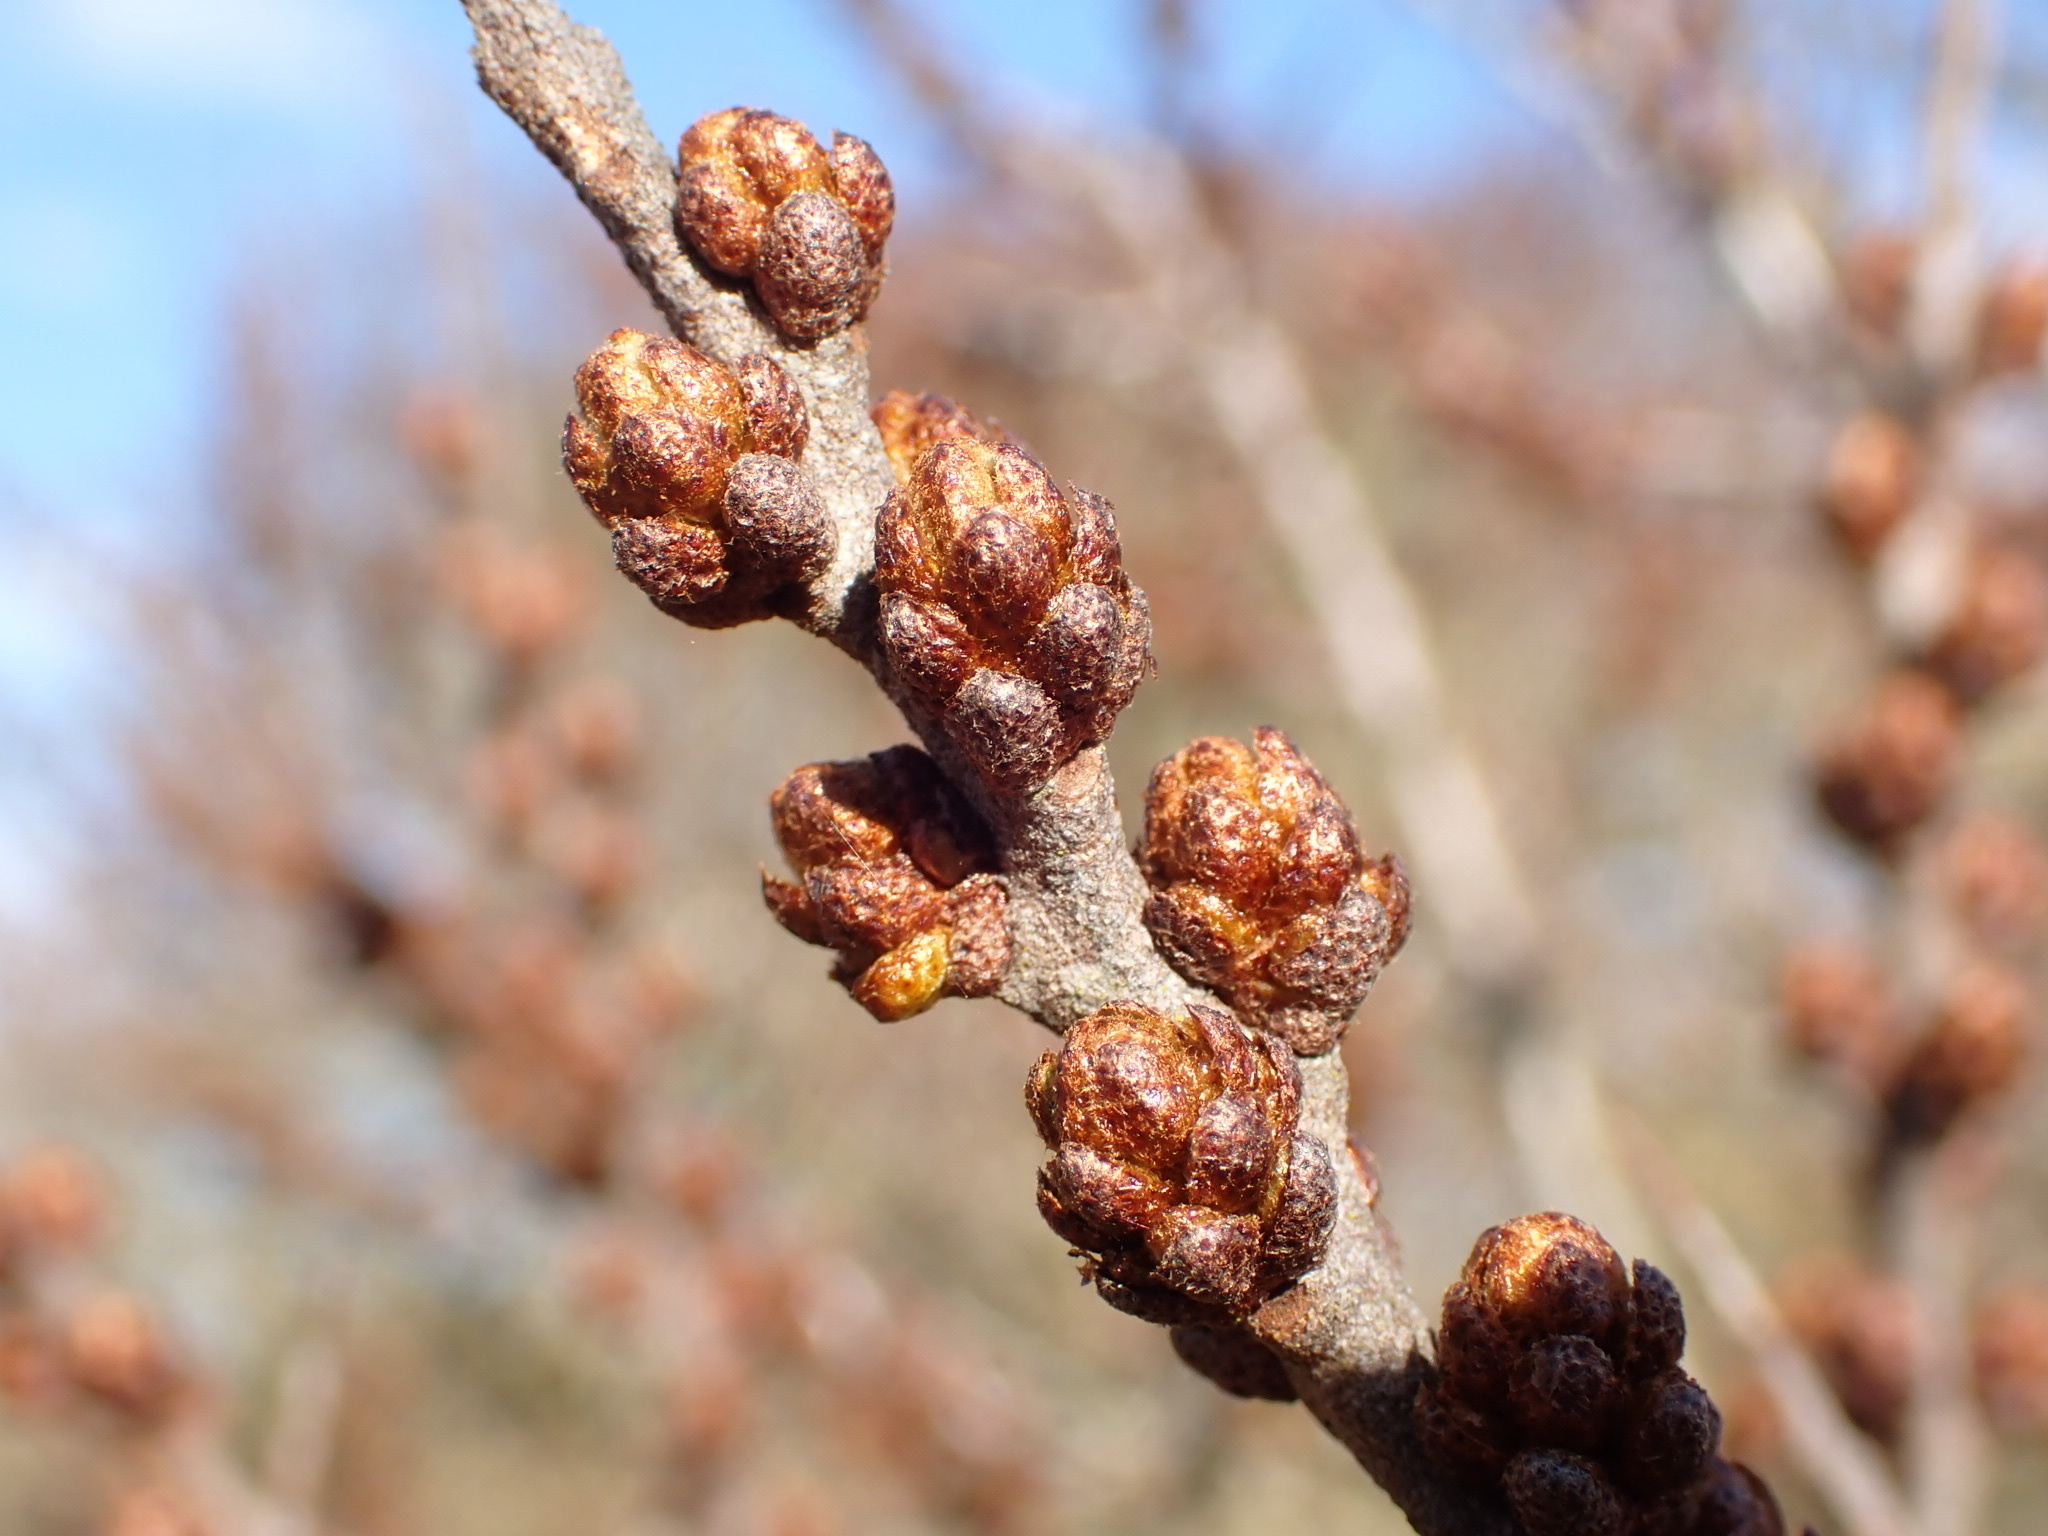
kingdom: Plantae
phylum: Tracheophyta
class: Magnoliopsida
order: Rosales
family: Elaeagnaceae
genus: Hippophae
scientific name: Hippophae rhamnoides
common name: Sea-buckthorn
